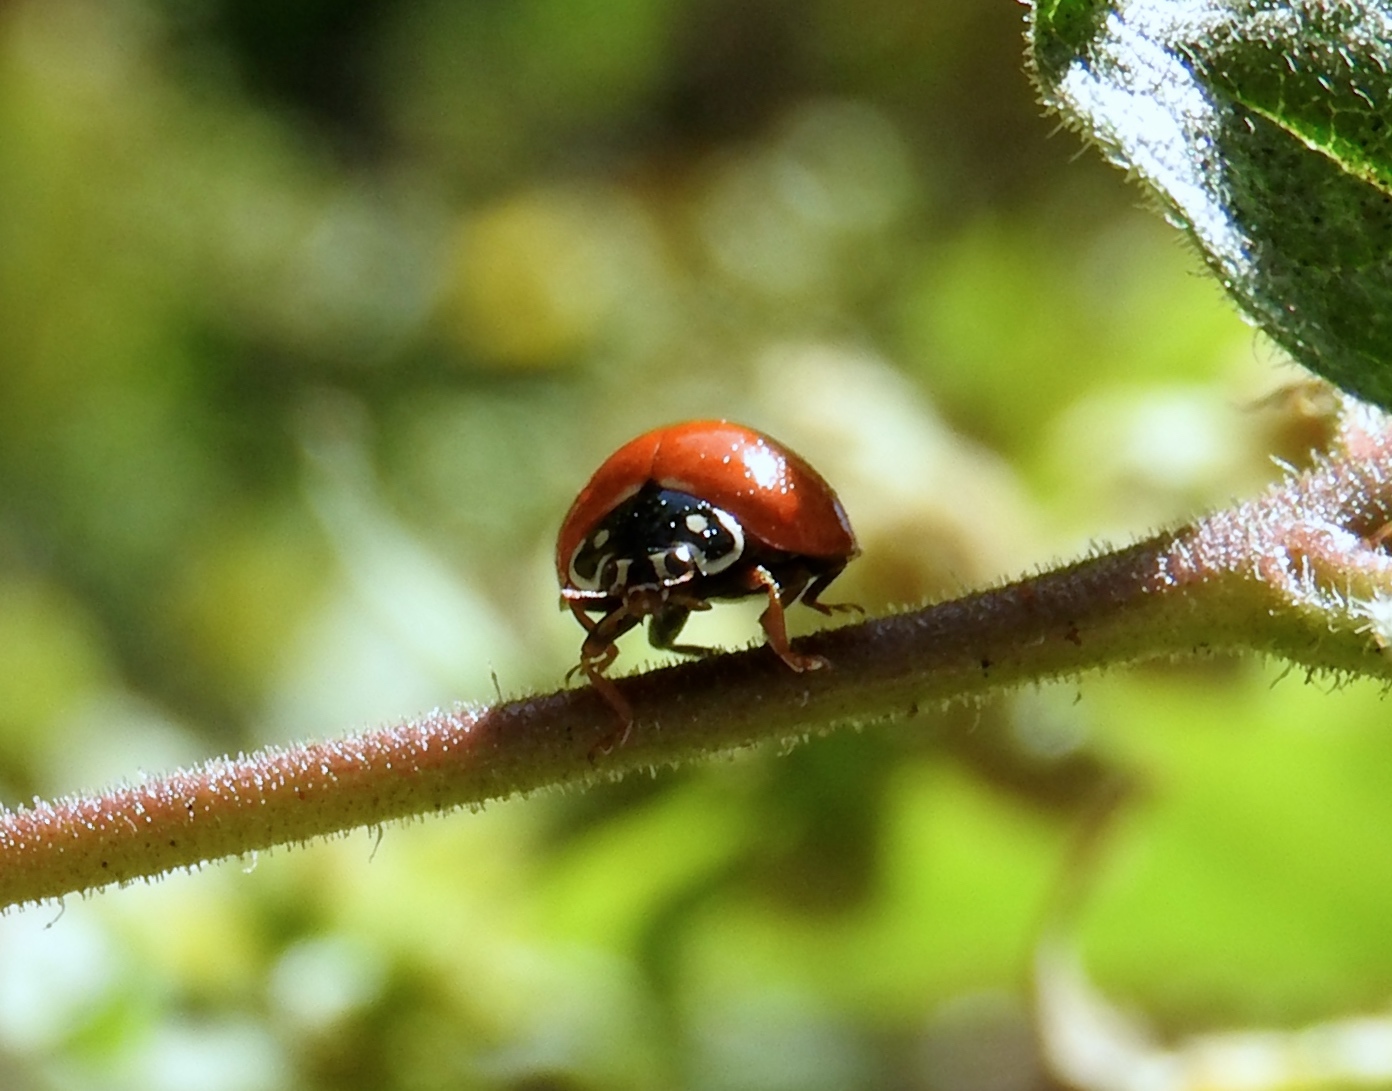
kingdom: Animalia
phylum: Arthropoda
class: Insecta
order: Coleoptera
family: Coccinellidae
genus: Cycloneda
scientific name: Cycloneda sanguinea
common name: Ladybird beetle
